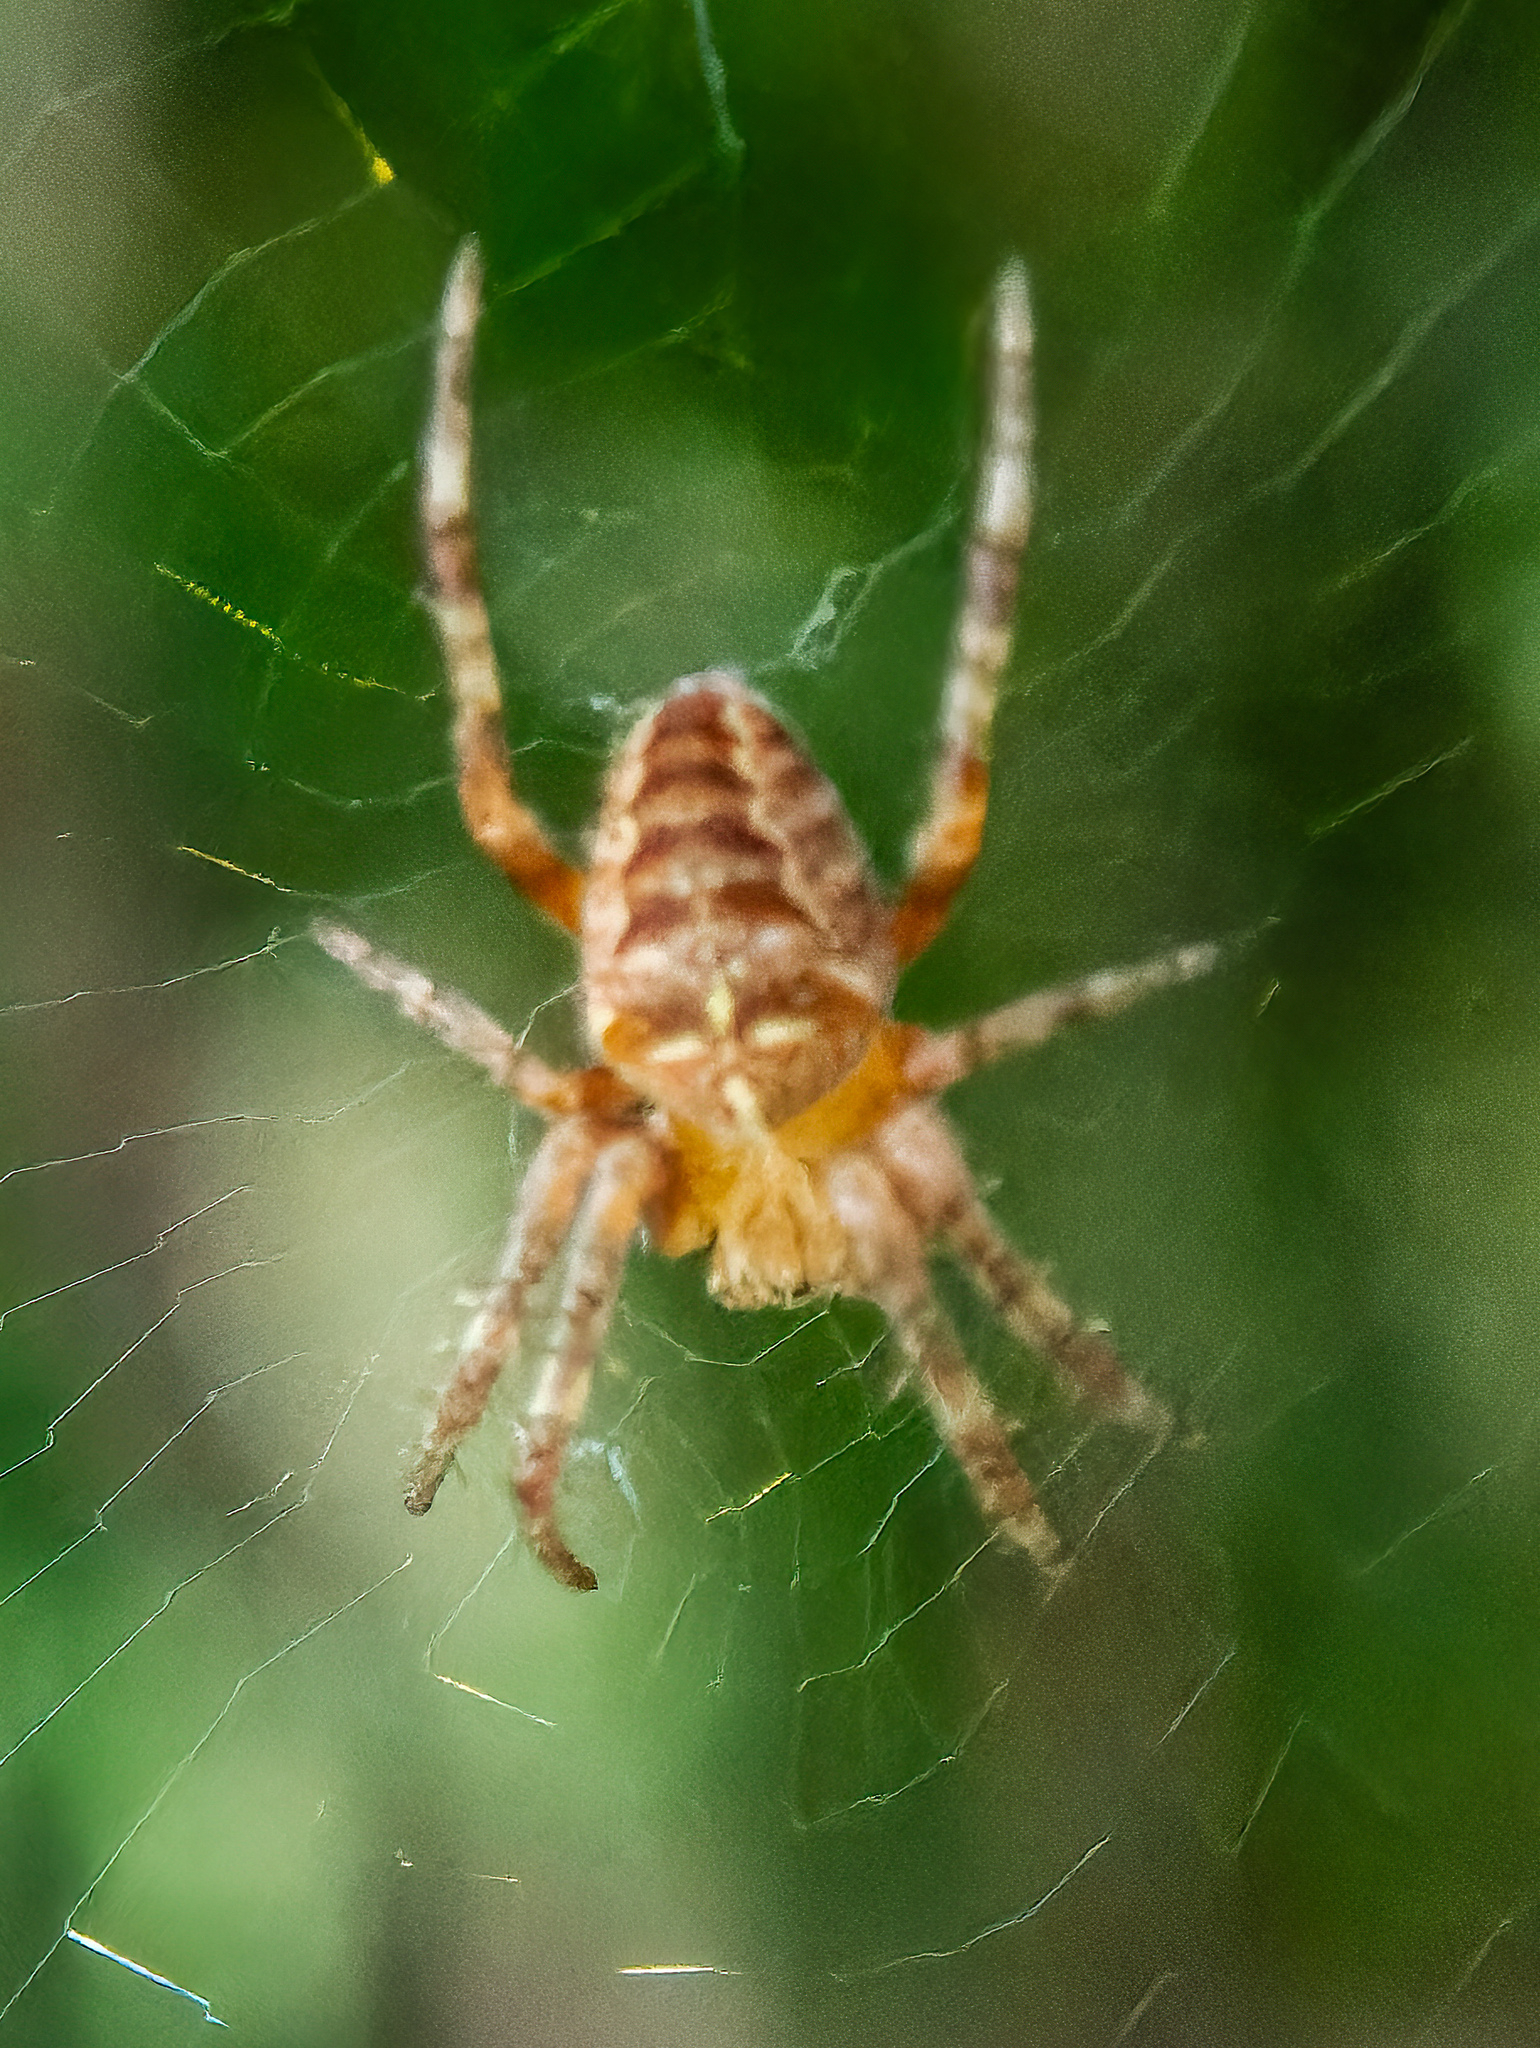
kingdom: Animalia
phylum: Arthropoda
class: Arachnida
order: Araneae
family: Araneidae
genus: Araneus
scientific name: Araneus diadematus
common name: Cross orbweaver
